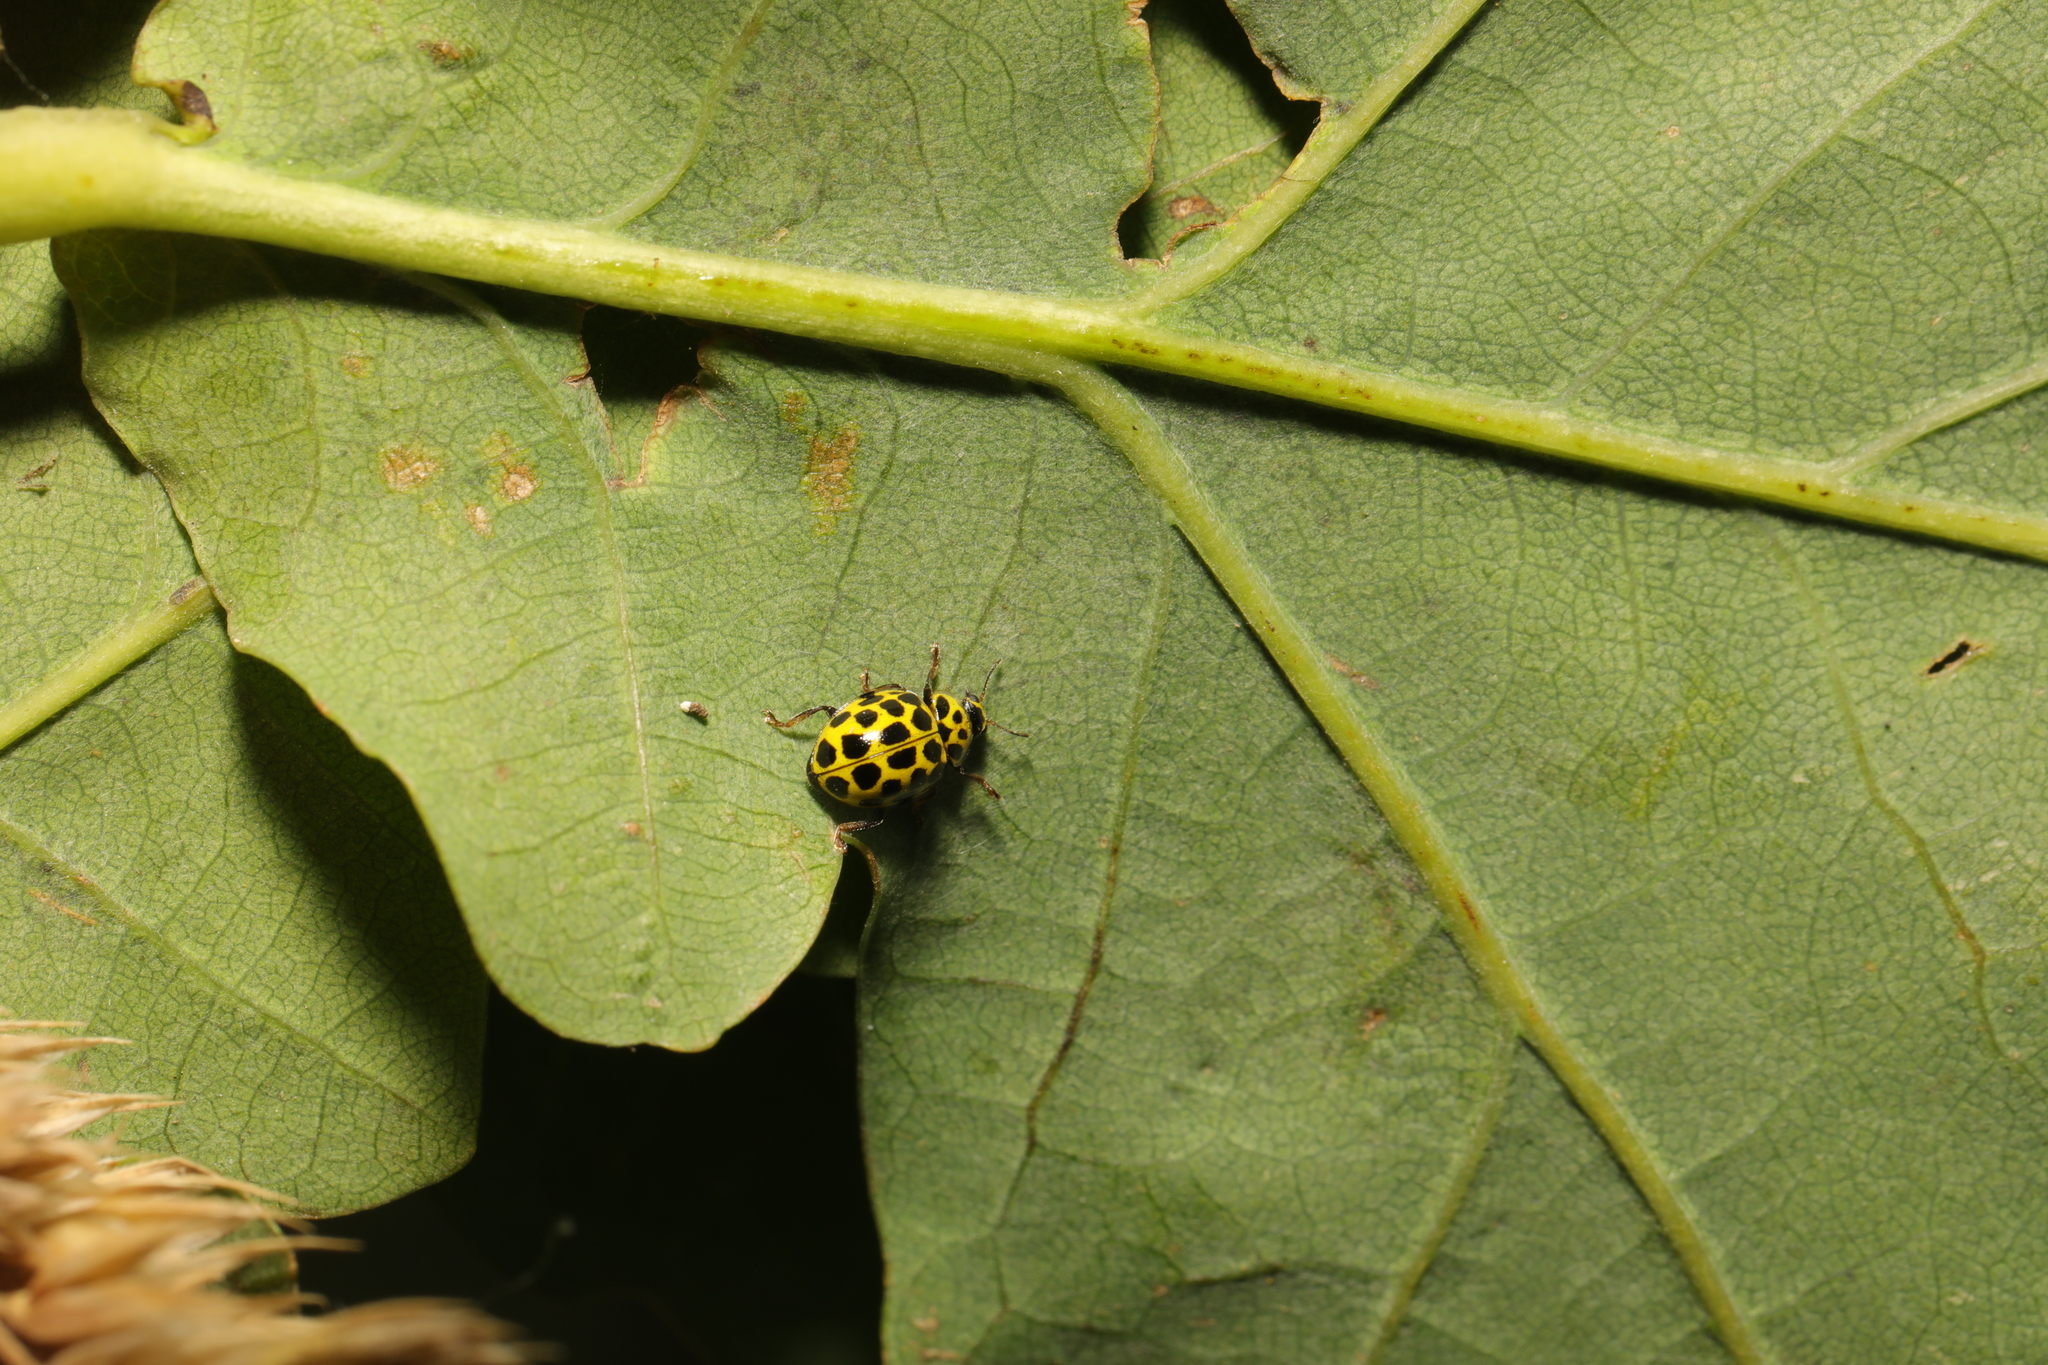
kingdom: Animalia
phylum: Arthropoda
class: Insecta
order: Coleoptera
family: Coccinellidae
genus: Psyllobora
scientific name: Psyllobora vigintiduopunctata
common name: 22-spot ladybird
